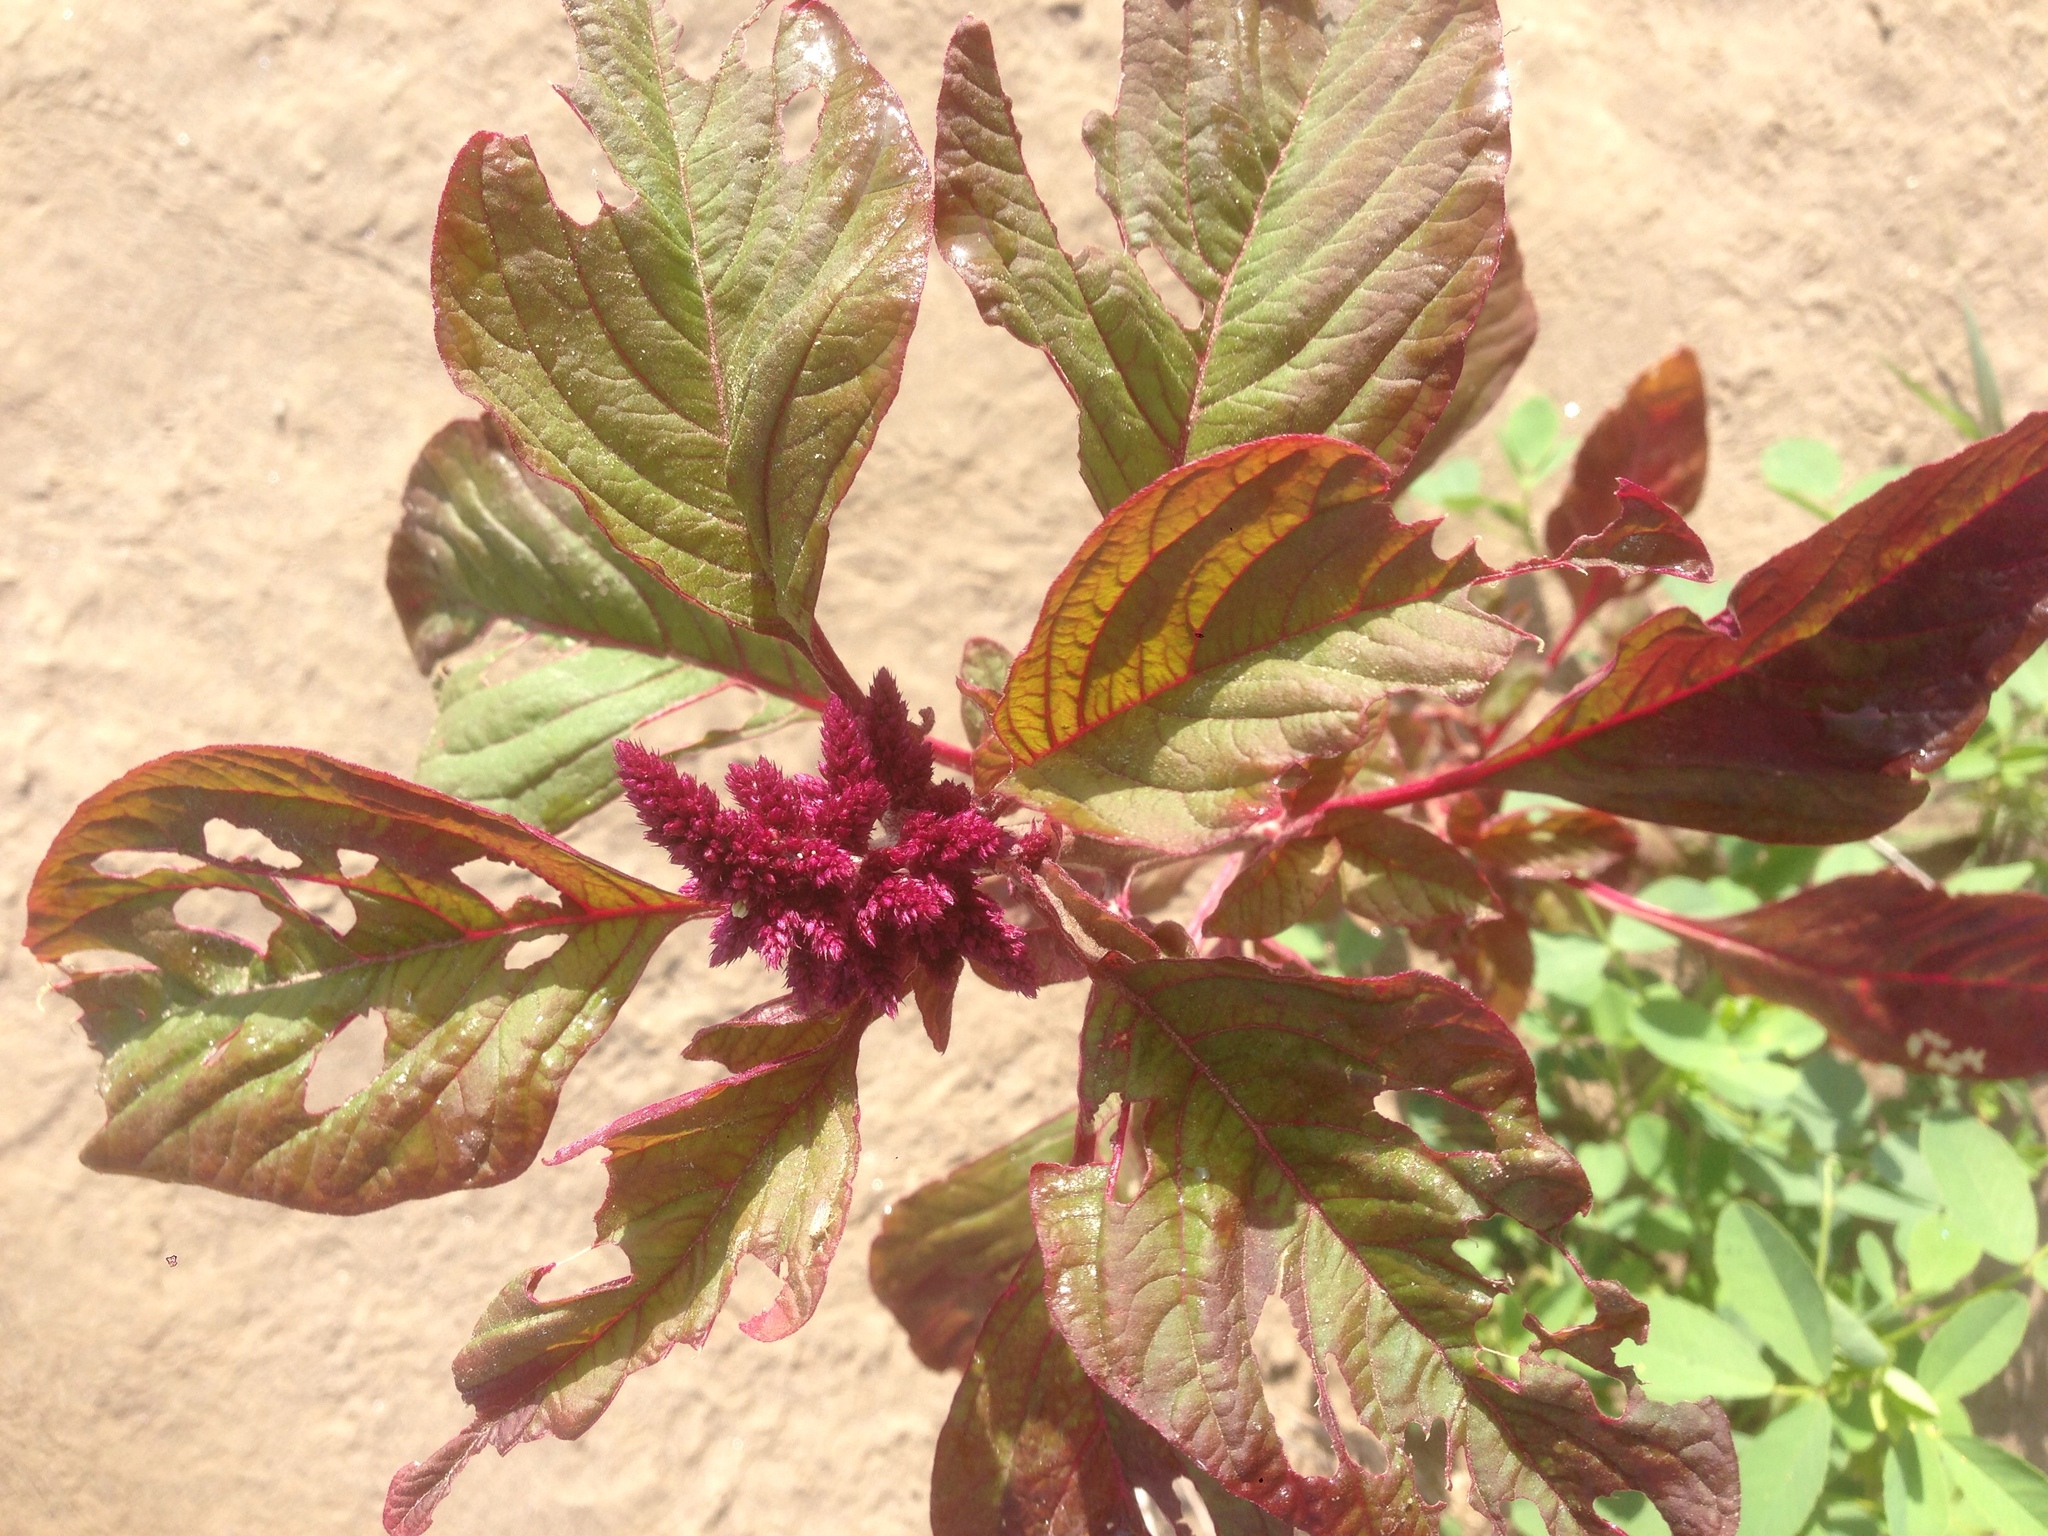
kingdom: Plantae
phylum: Tracheophyta
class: Magnoliopsida
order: Caryophyllales
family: Amaranthaceae
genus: Amaranthus
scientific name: Amaranthus cruentus
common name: Purple amaranth
